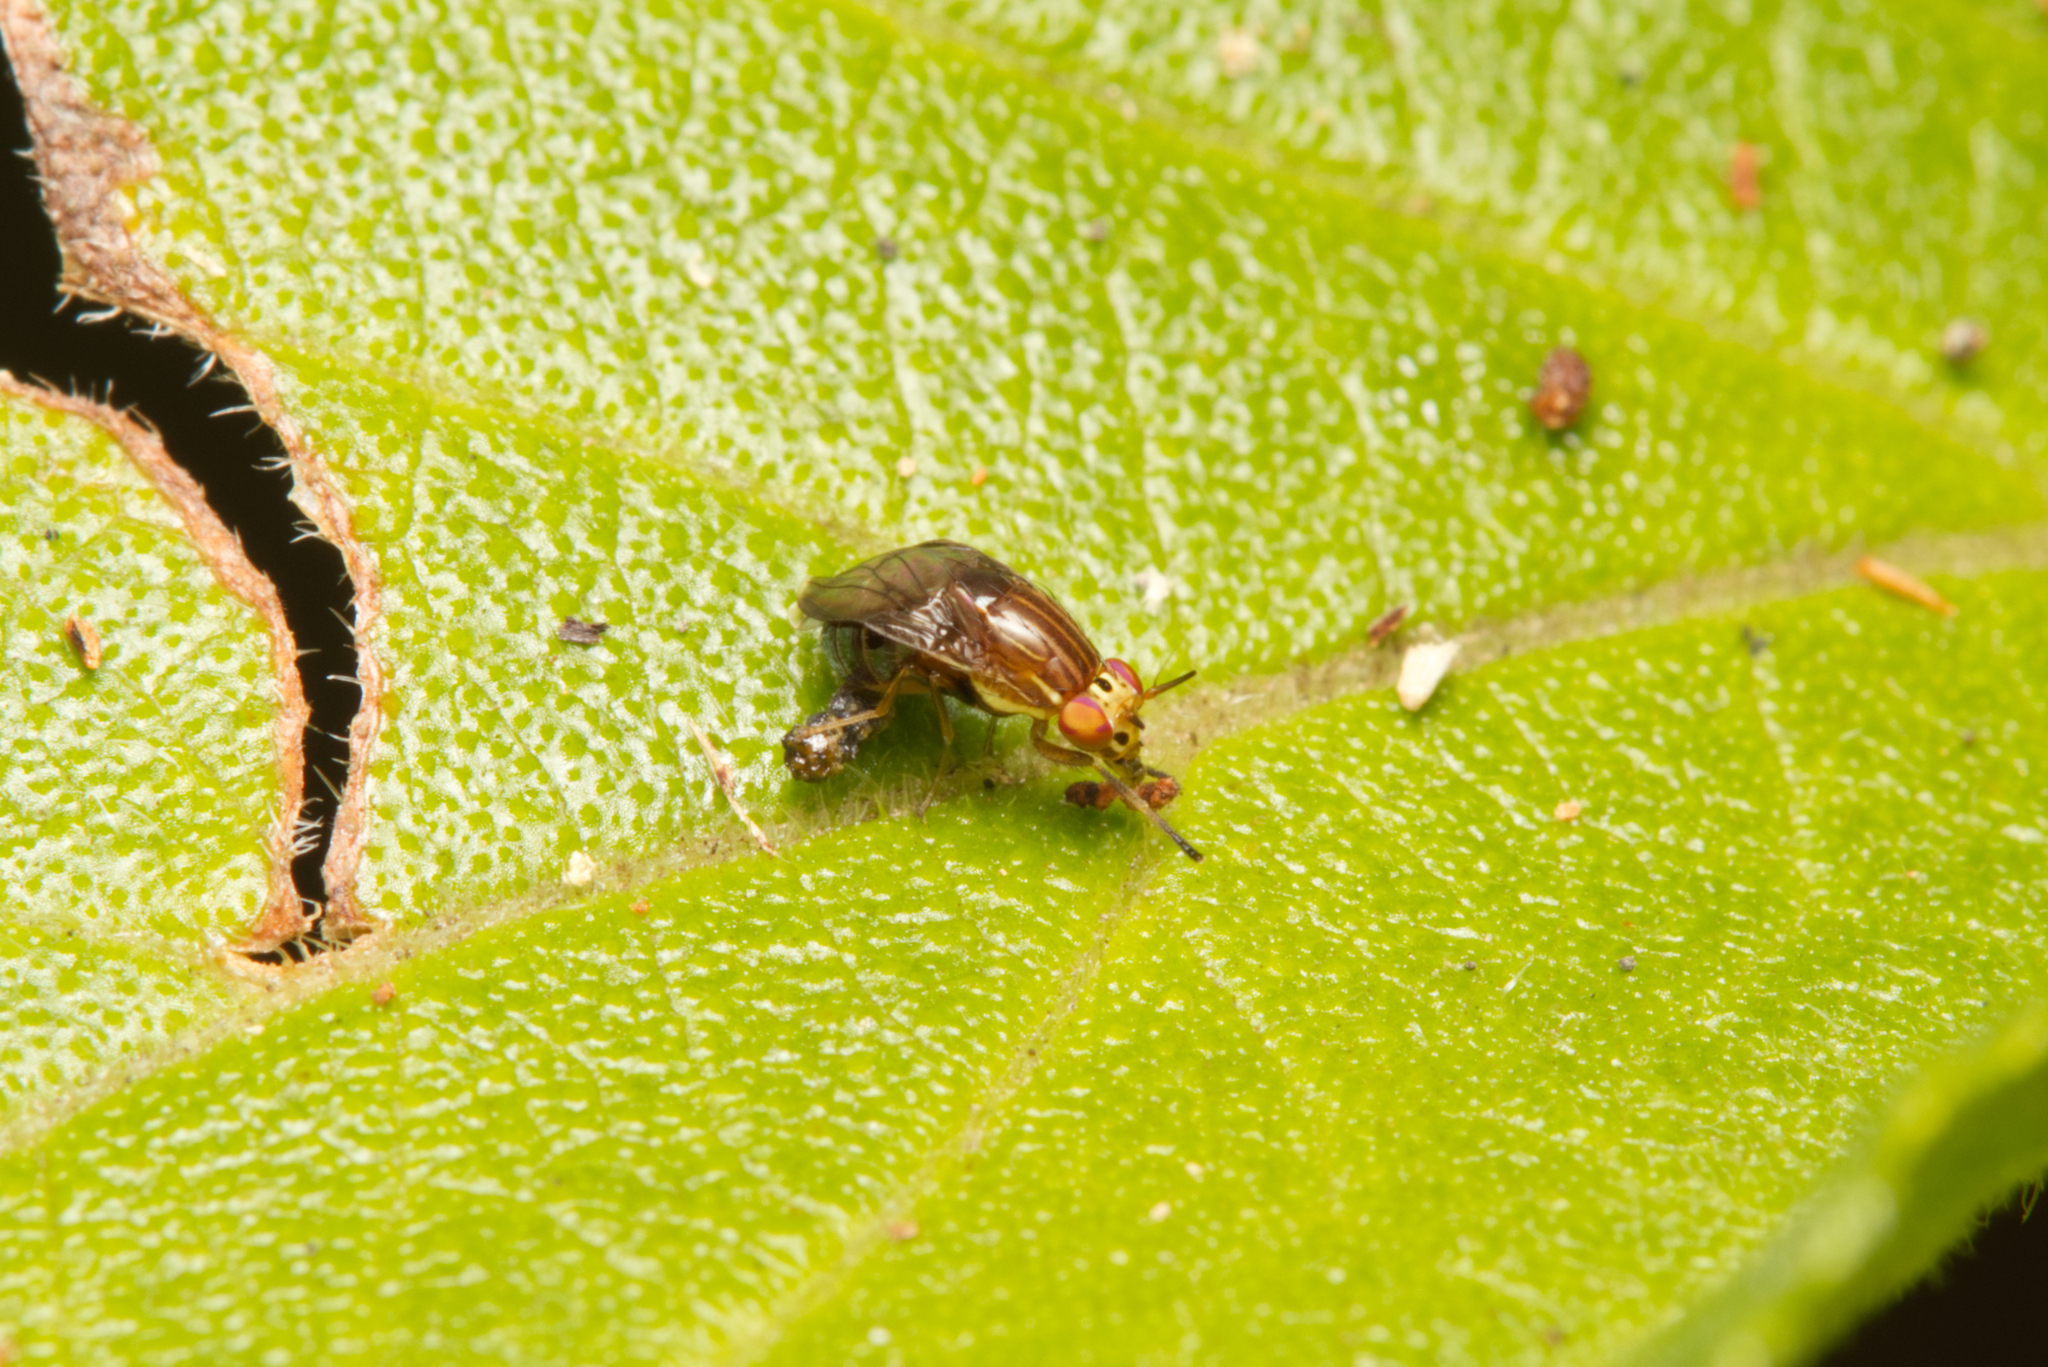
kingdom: Animalia
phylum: Arthropoda
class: Insecta
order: Diptera
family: Lauxaniidae
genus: Steganopsis
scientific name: Steganopsis melanogaster
